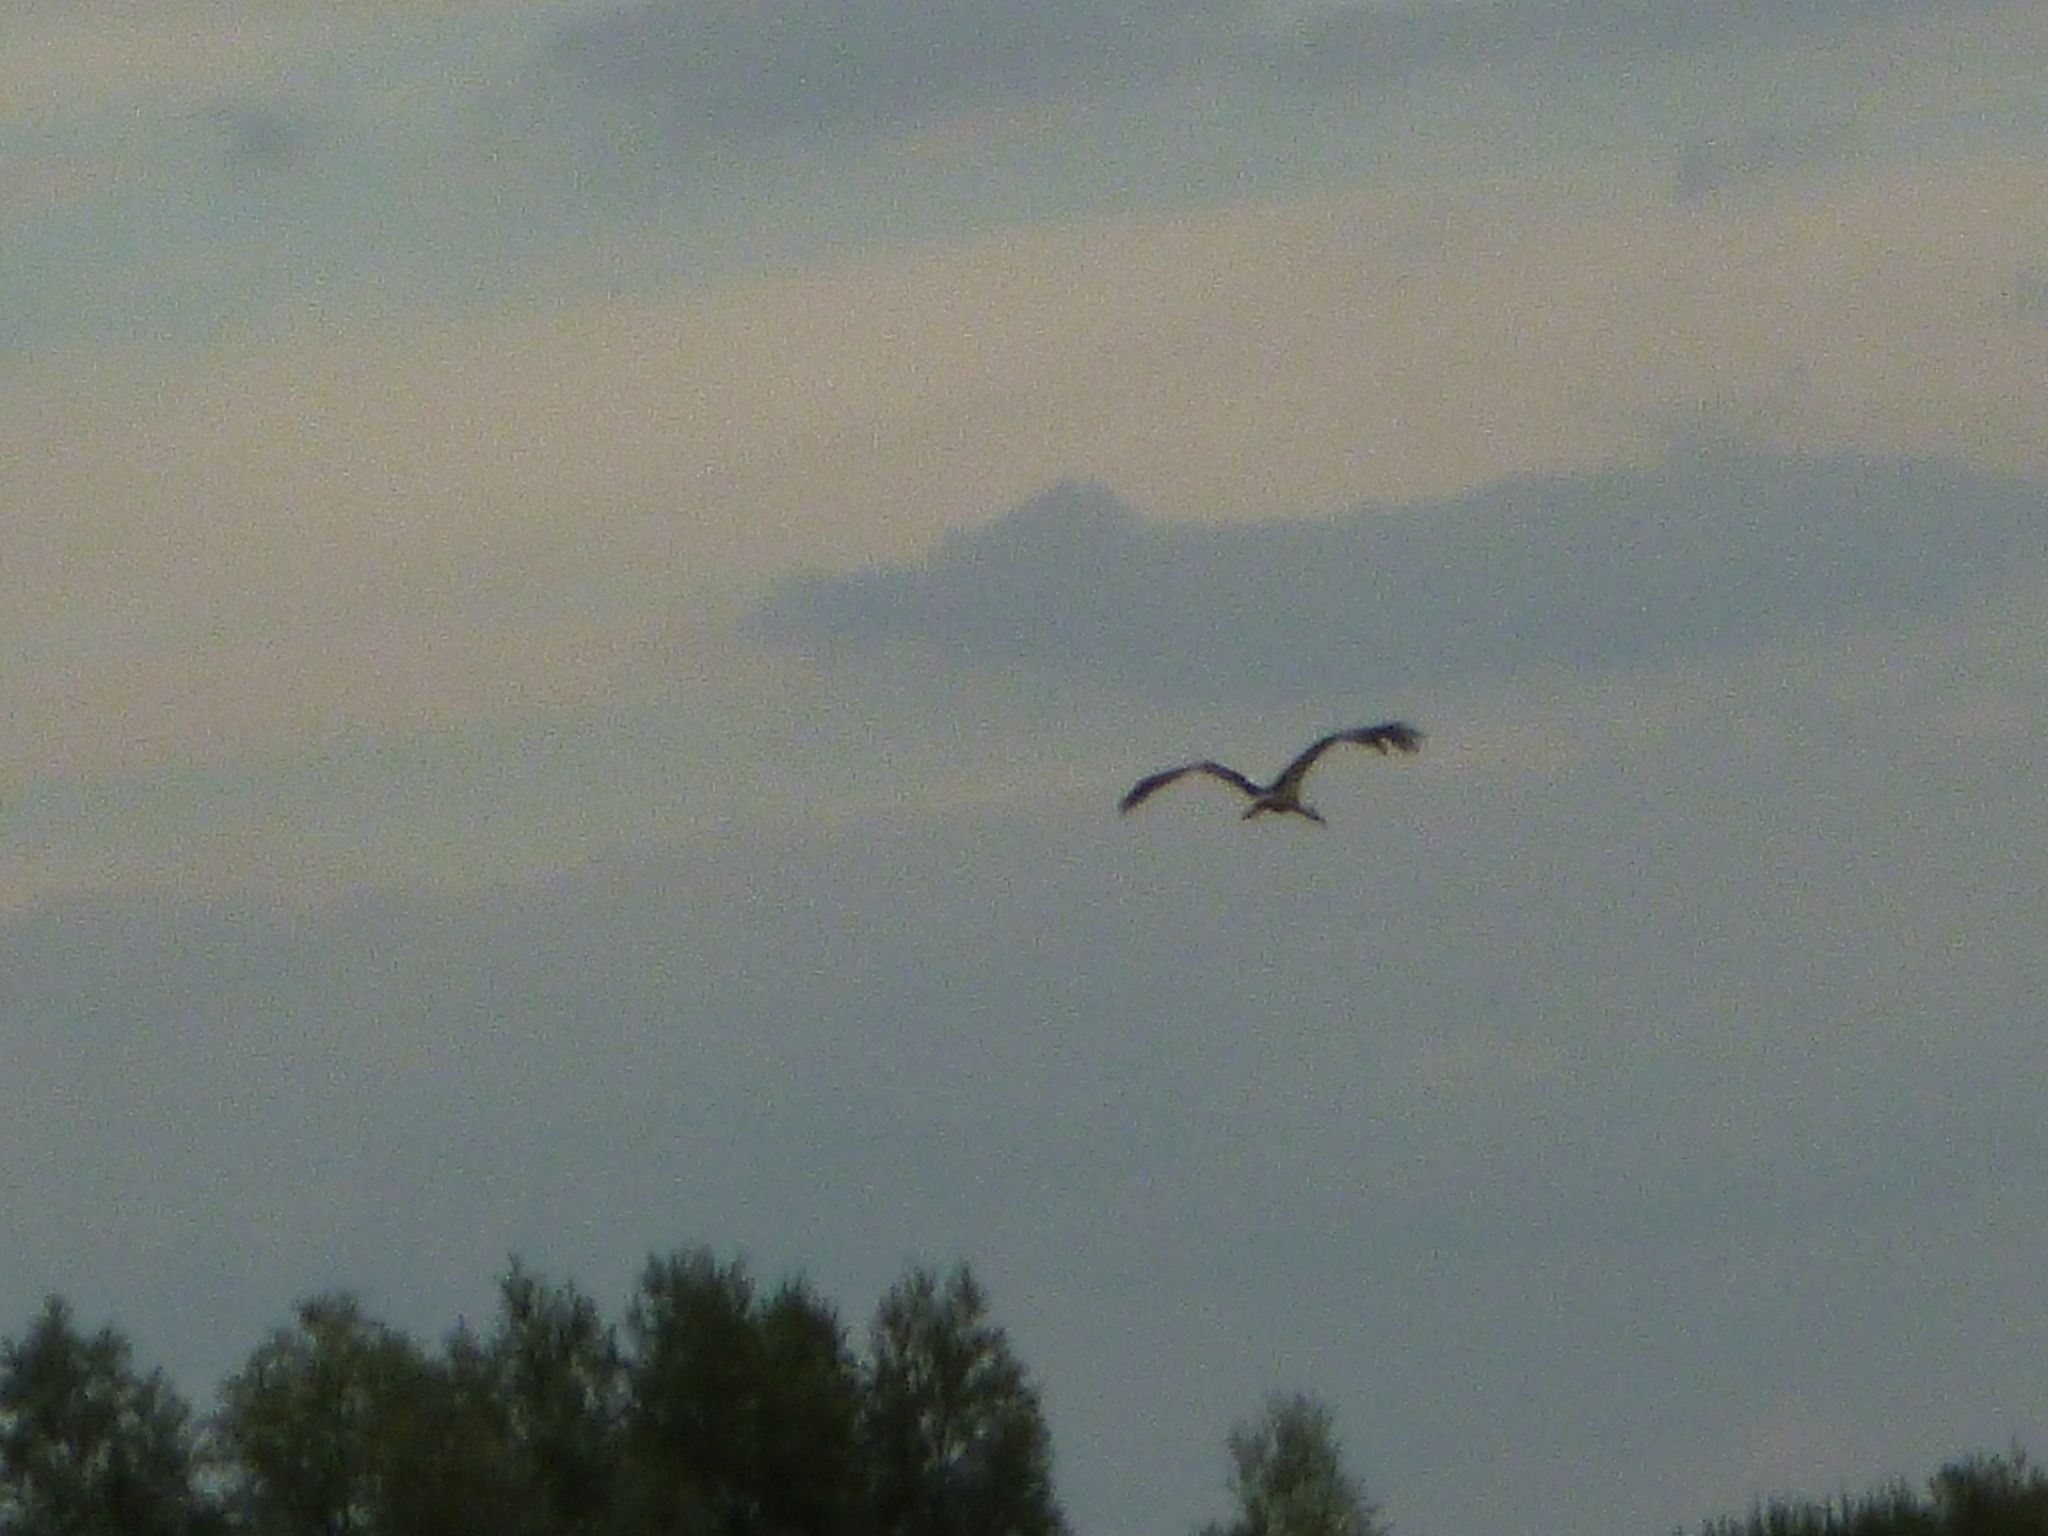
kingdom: Animalia
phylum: Chordata
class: Aves
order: Ciconiiformes
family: Ciconiidae
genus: Ciconia
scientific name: Ciconia ciconia
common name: White stork
